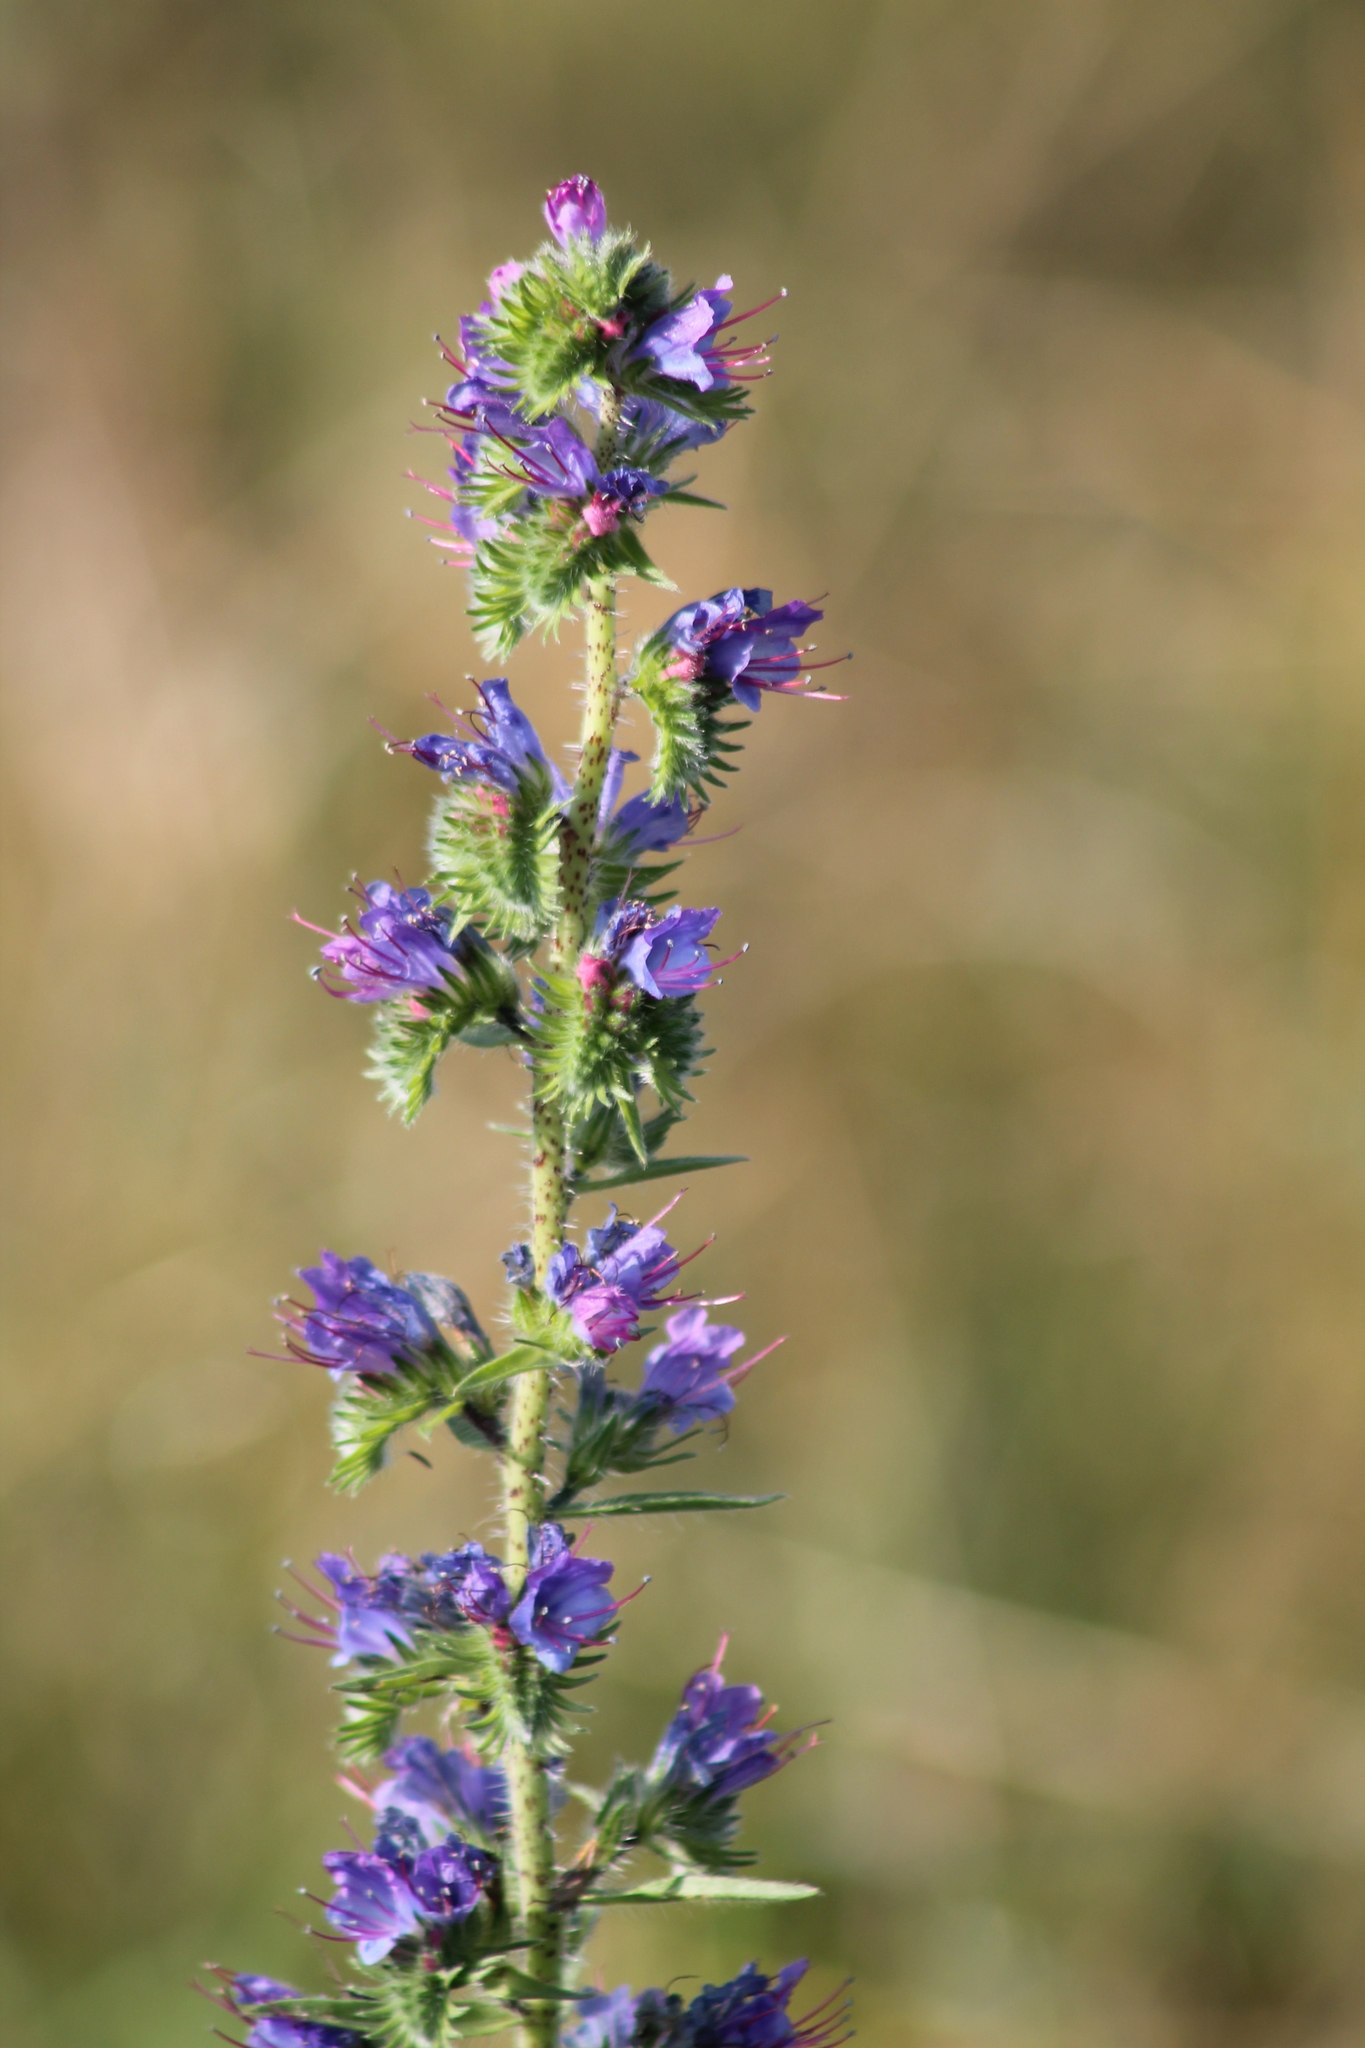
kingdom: Plantae
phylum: Tracheophyta
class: Magnoliopsida
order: Boraginales
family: Boraginaceae
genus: Echium
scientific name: Echium vulgare
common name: Common viper's bugloss
